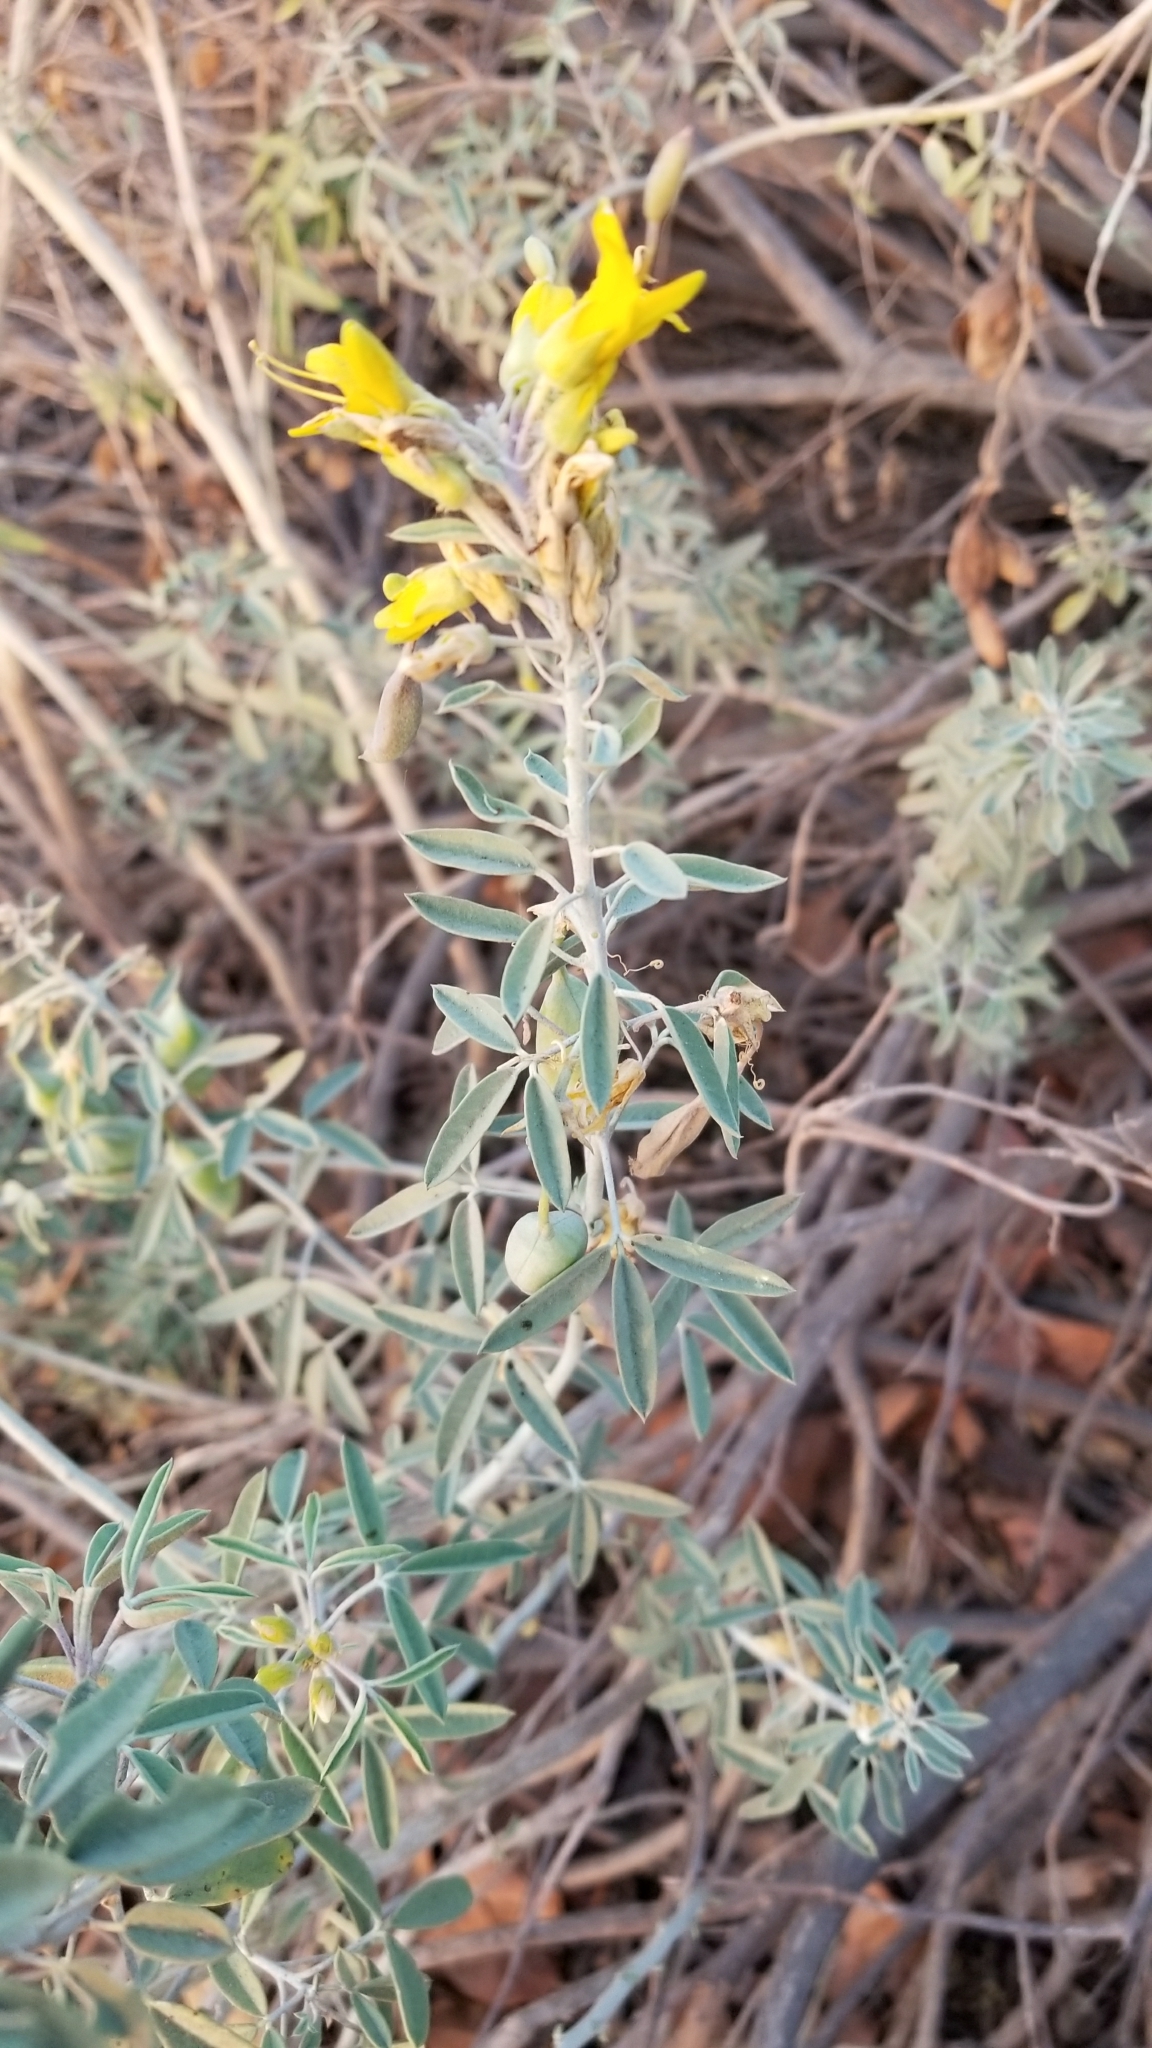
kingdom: Plantae
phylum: Tracheophyta
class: Magnoliopsida
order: Brassicales
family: Cleomaceae
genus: Cleomella
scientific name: Cleomella arborea
